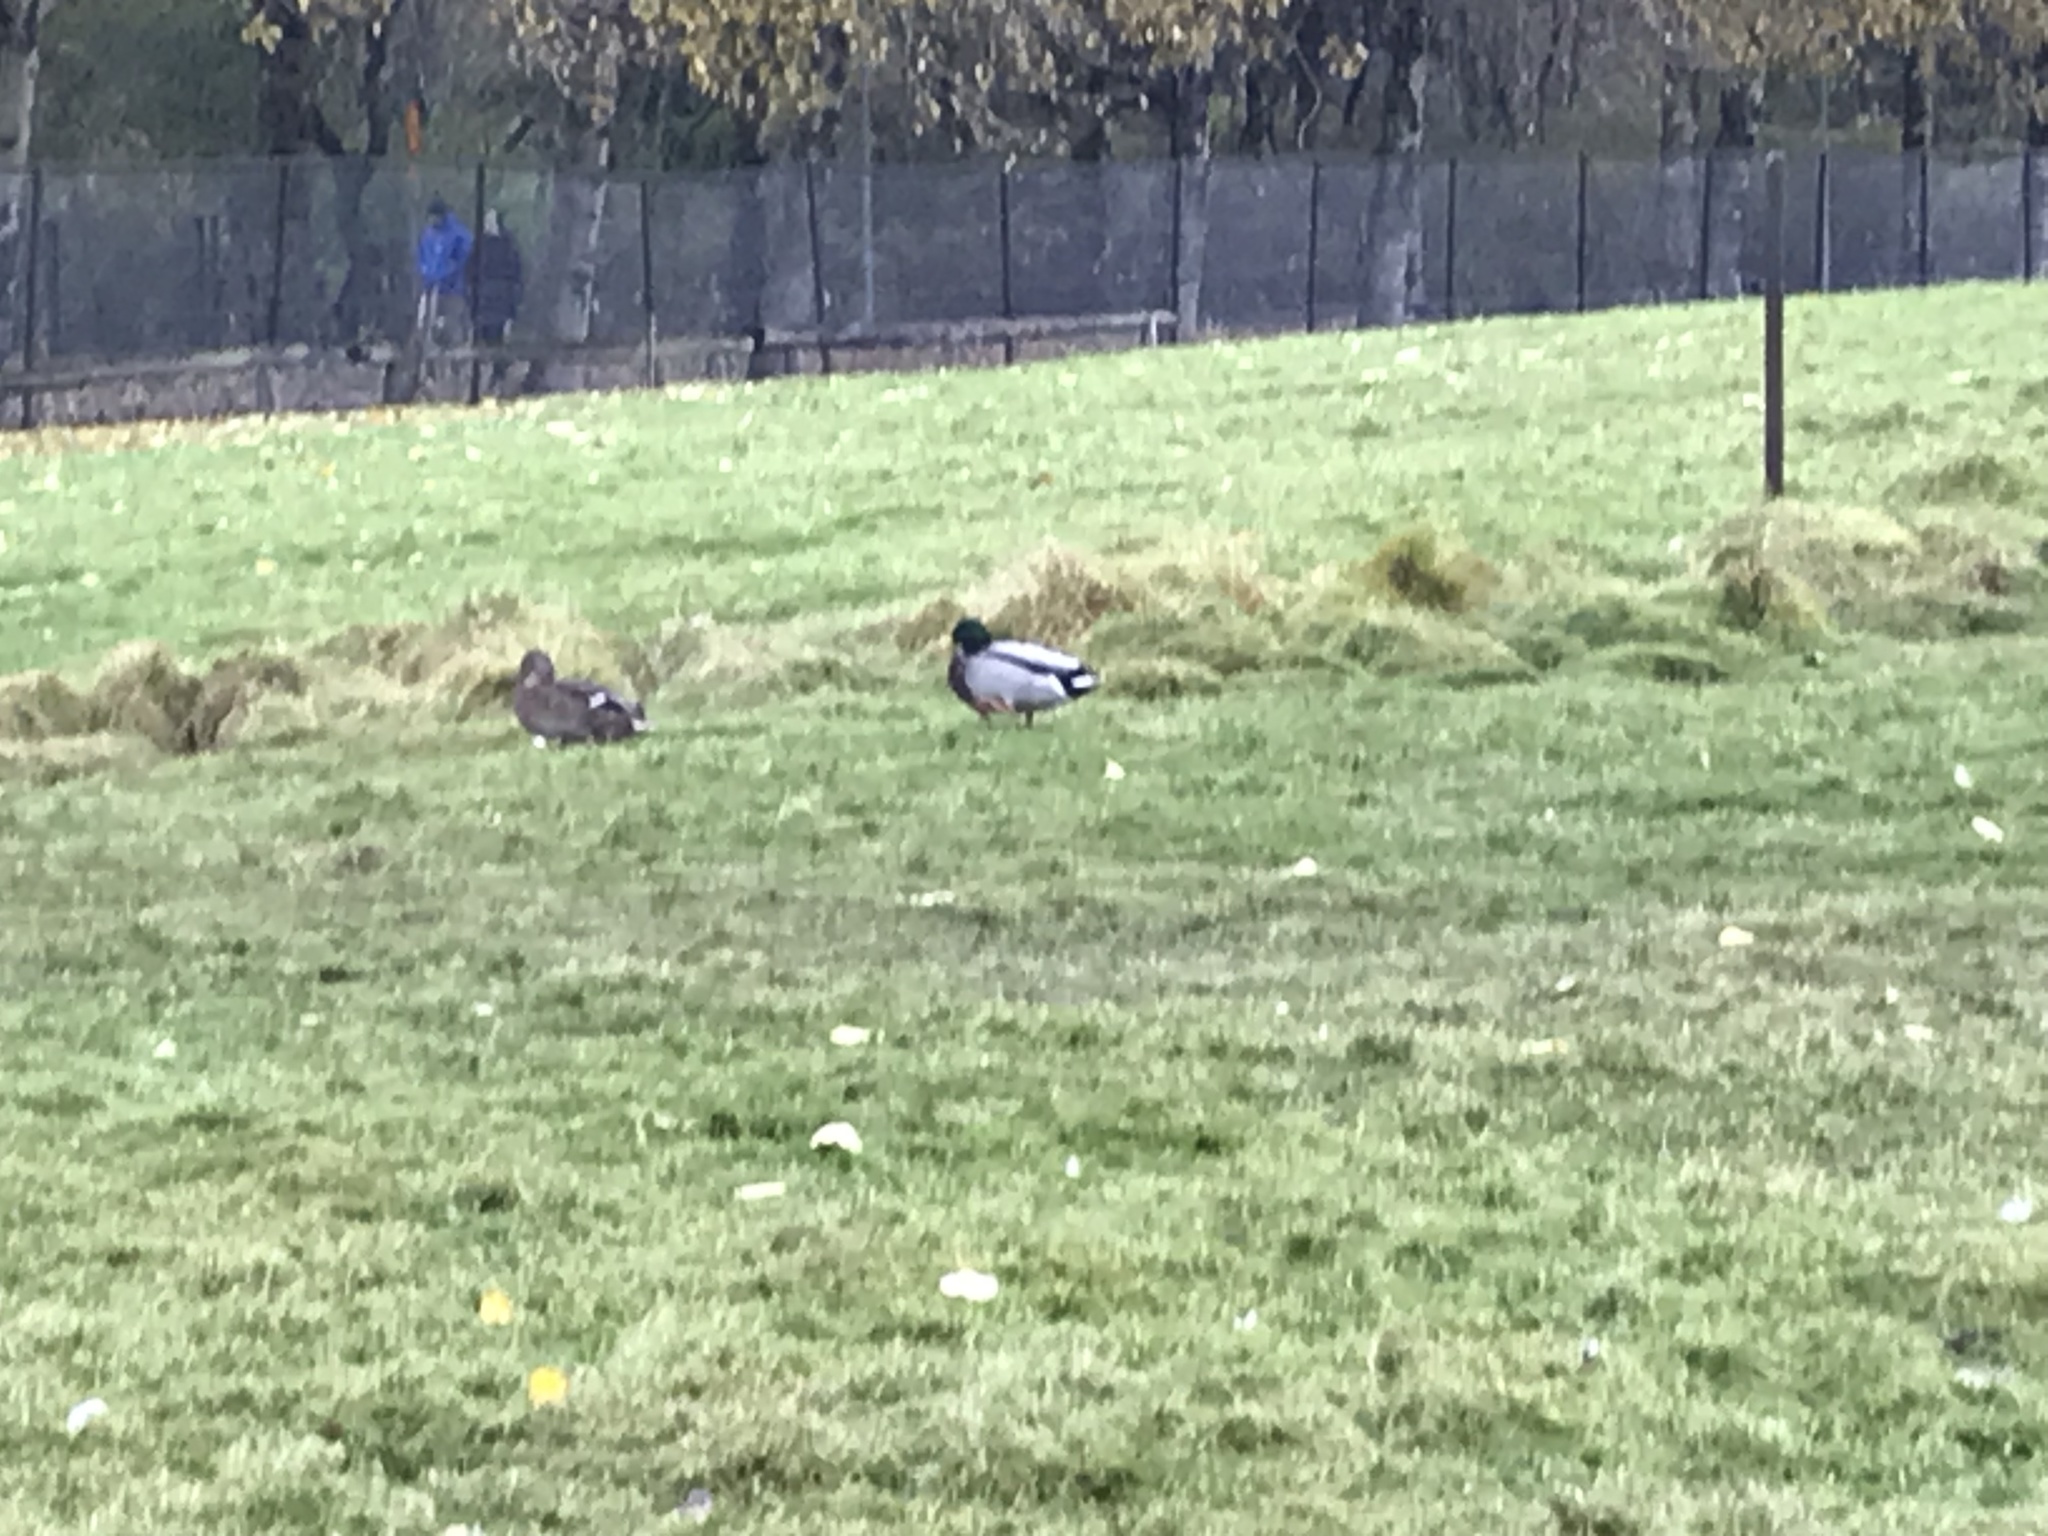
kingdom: Animalia
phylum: Chordata
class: Aves
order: Anseriformes
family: Anatidae
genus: Anas
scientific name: Anas platyrhynchos
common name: Mallard
